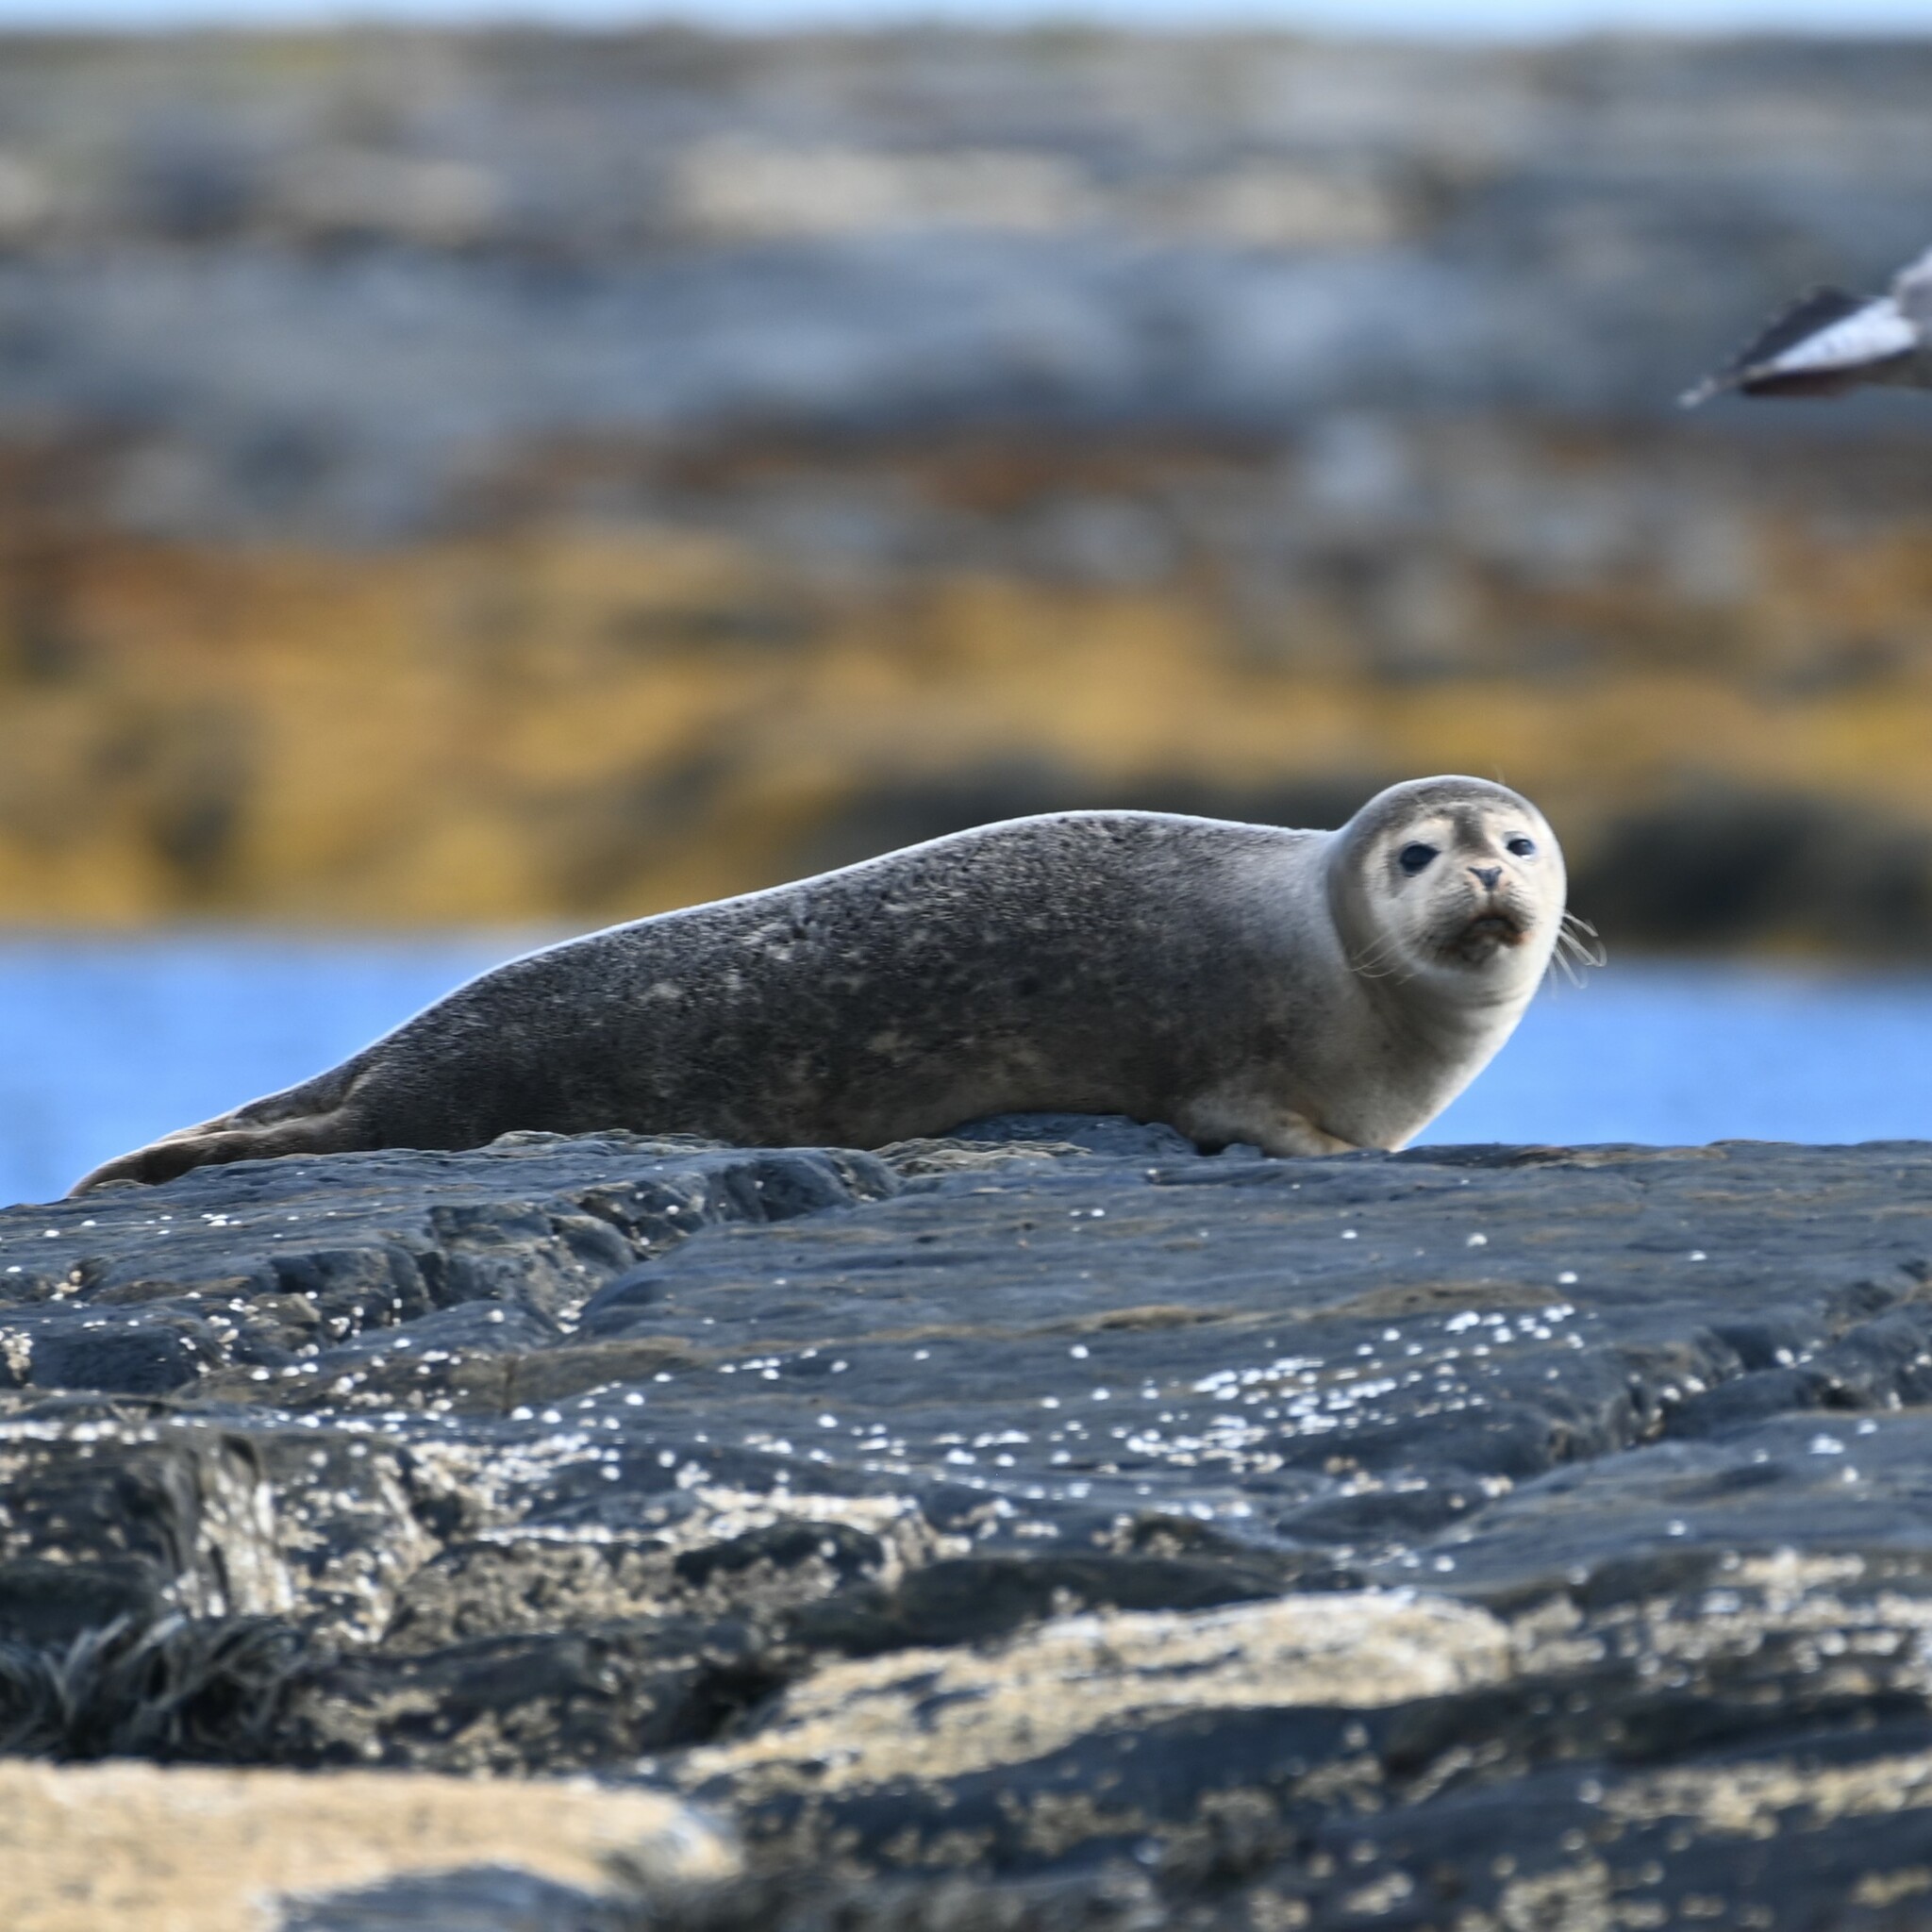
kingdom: Animalia
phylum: Chordata
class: Mammalia
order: Carnivora
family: Phocidae
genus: Phoca
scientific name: Phoca vitulina
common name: Harbor seal
